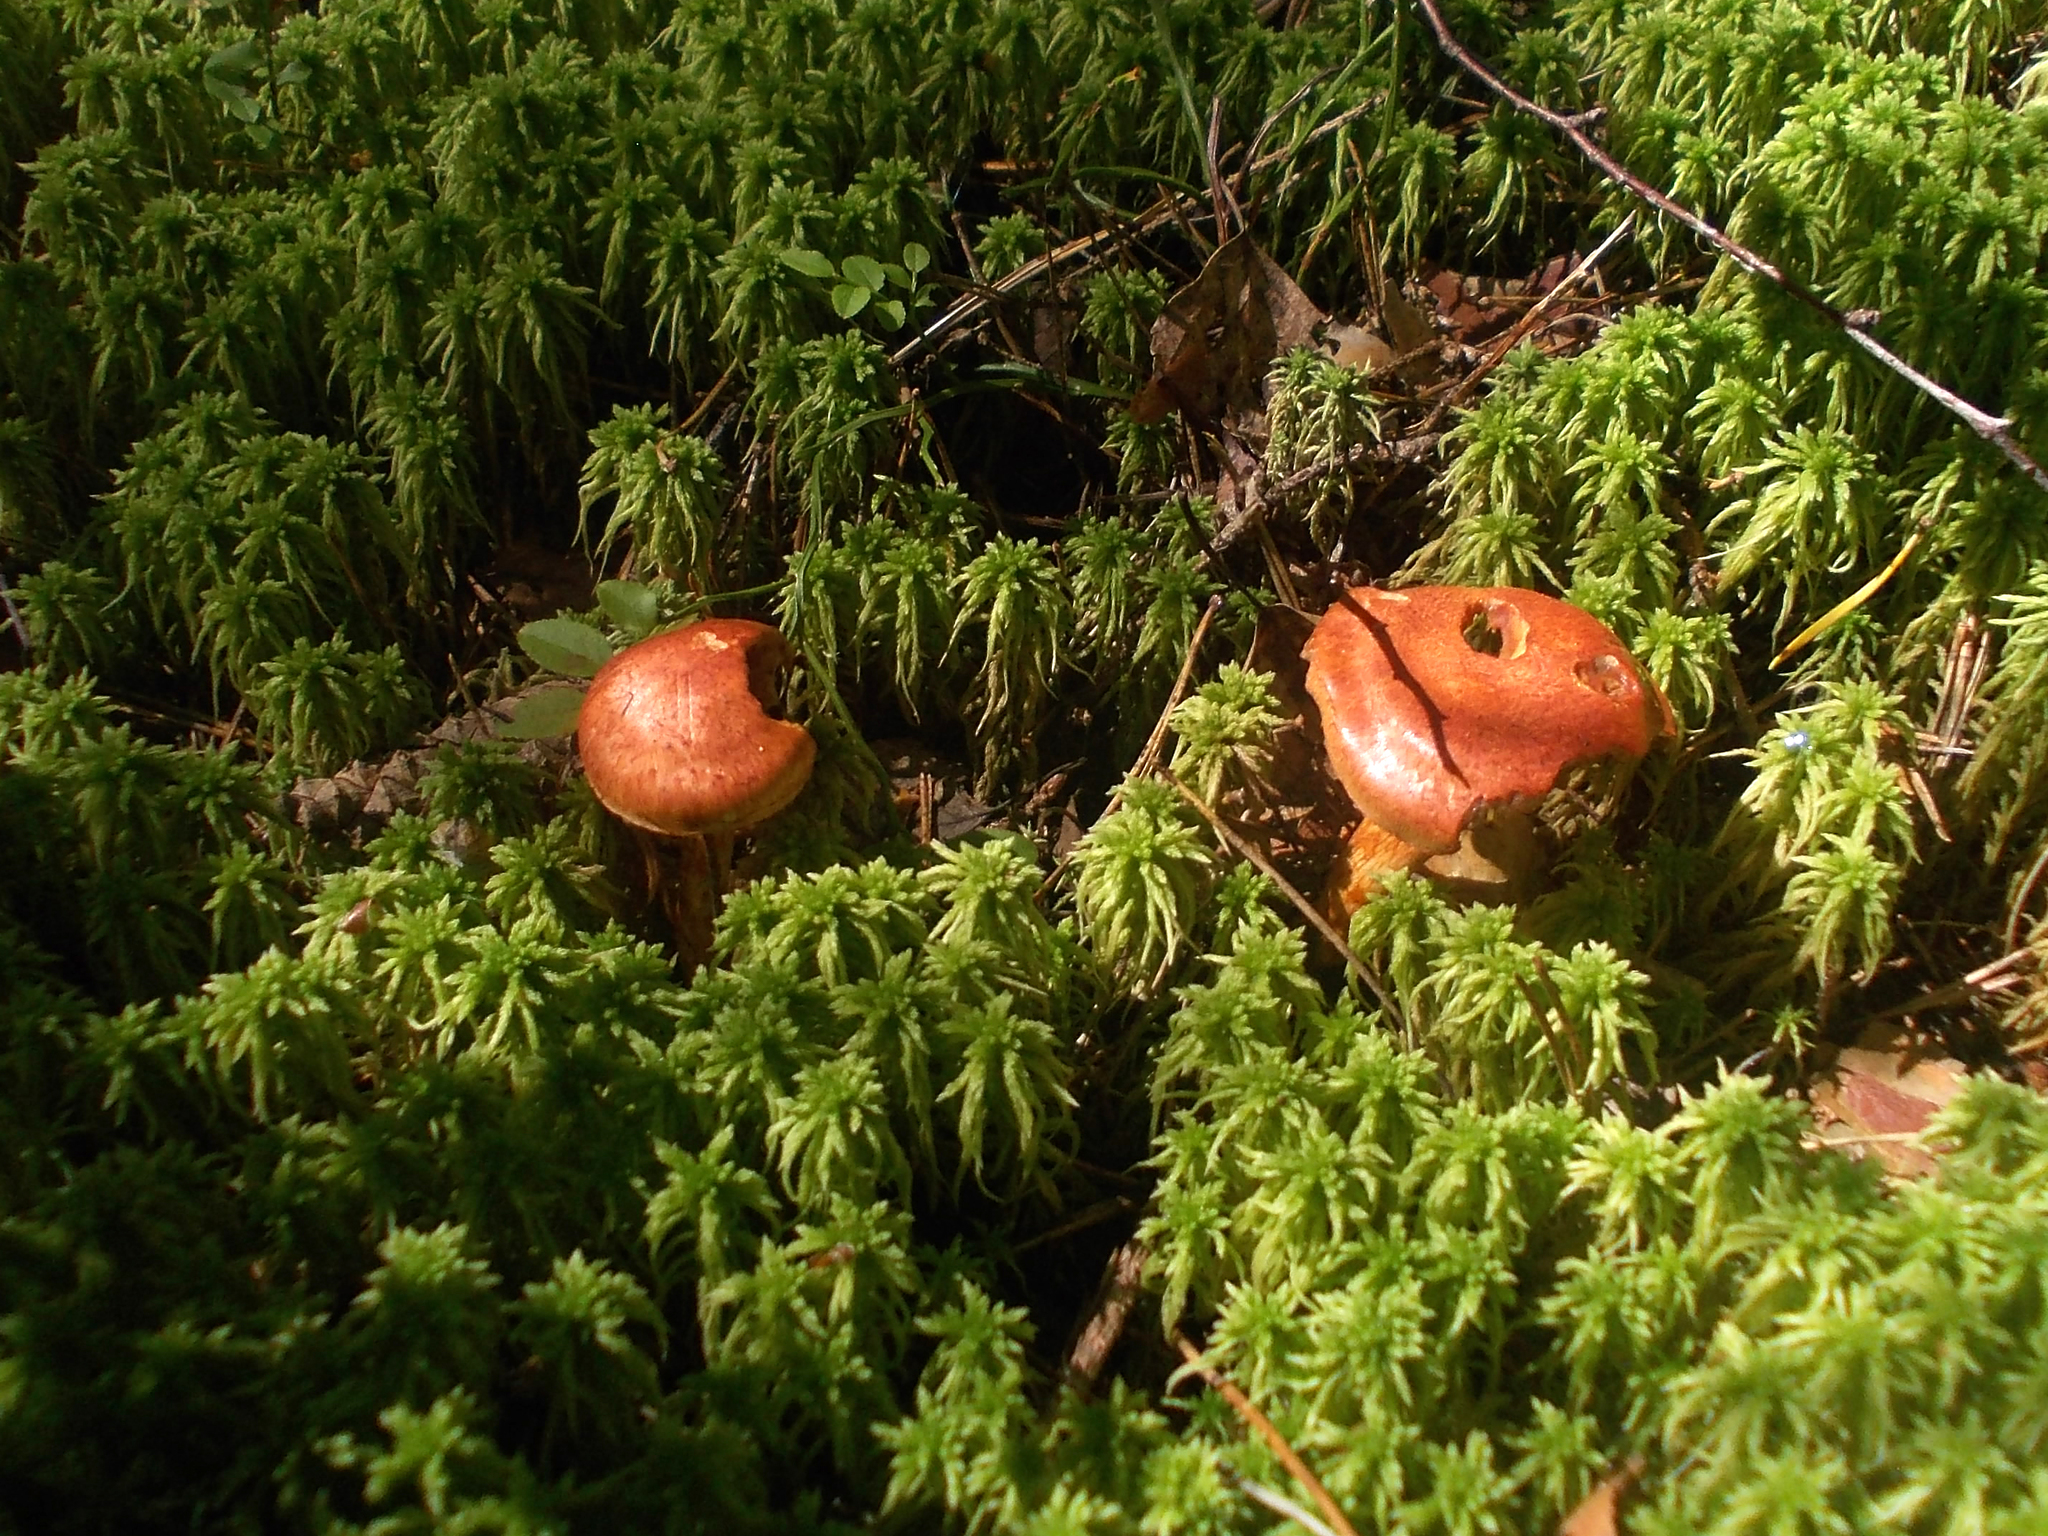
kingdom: Fungi
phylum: Basidiomycota
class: Agaricomycetes
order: Agaricales
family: Cortinariaceae
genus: Cortinarius
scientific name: Cortinarius bolaris
